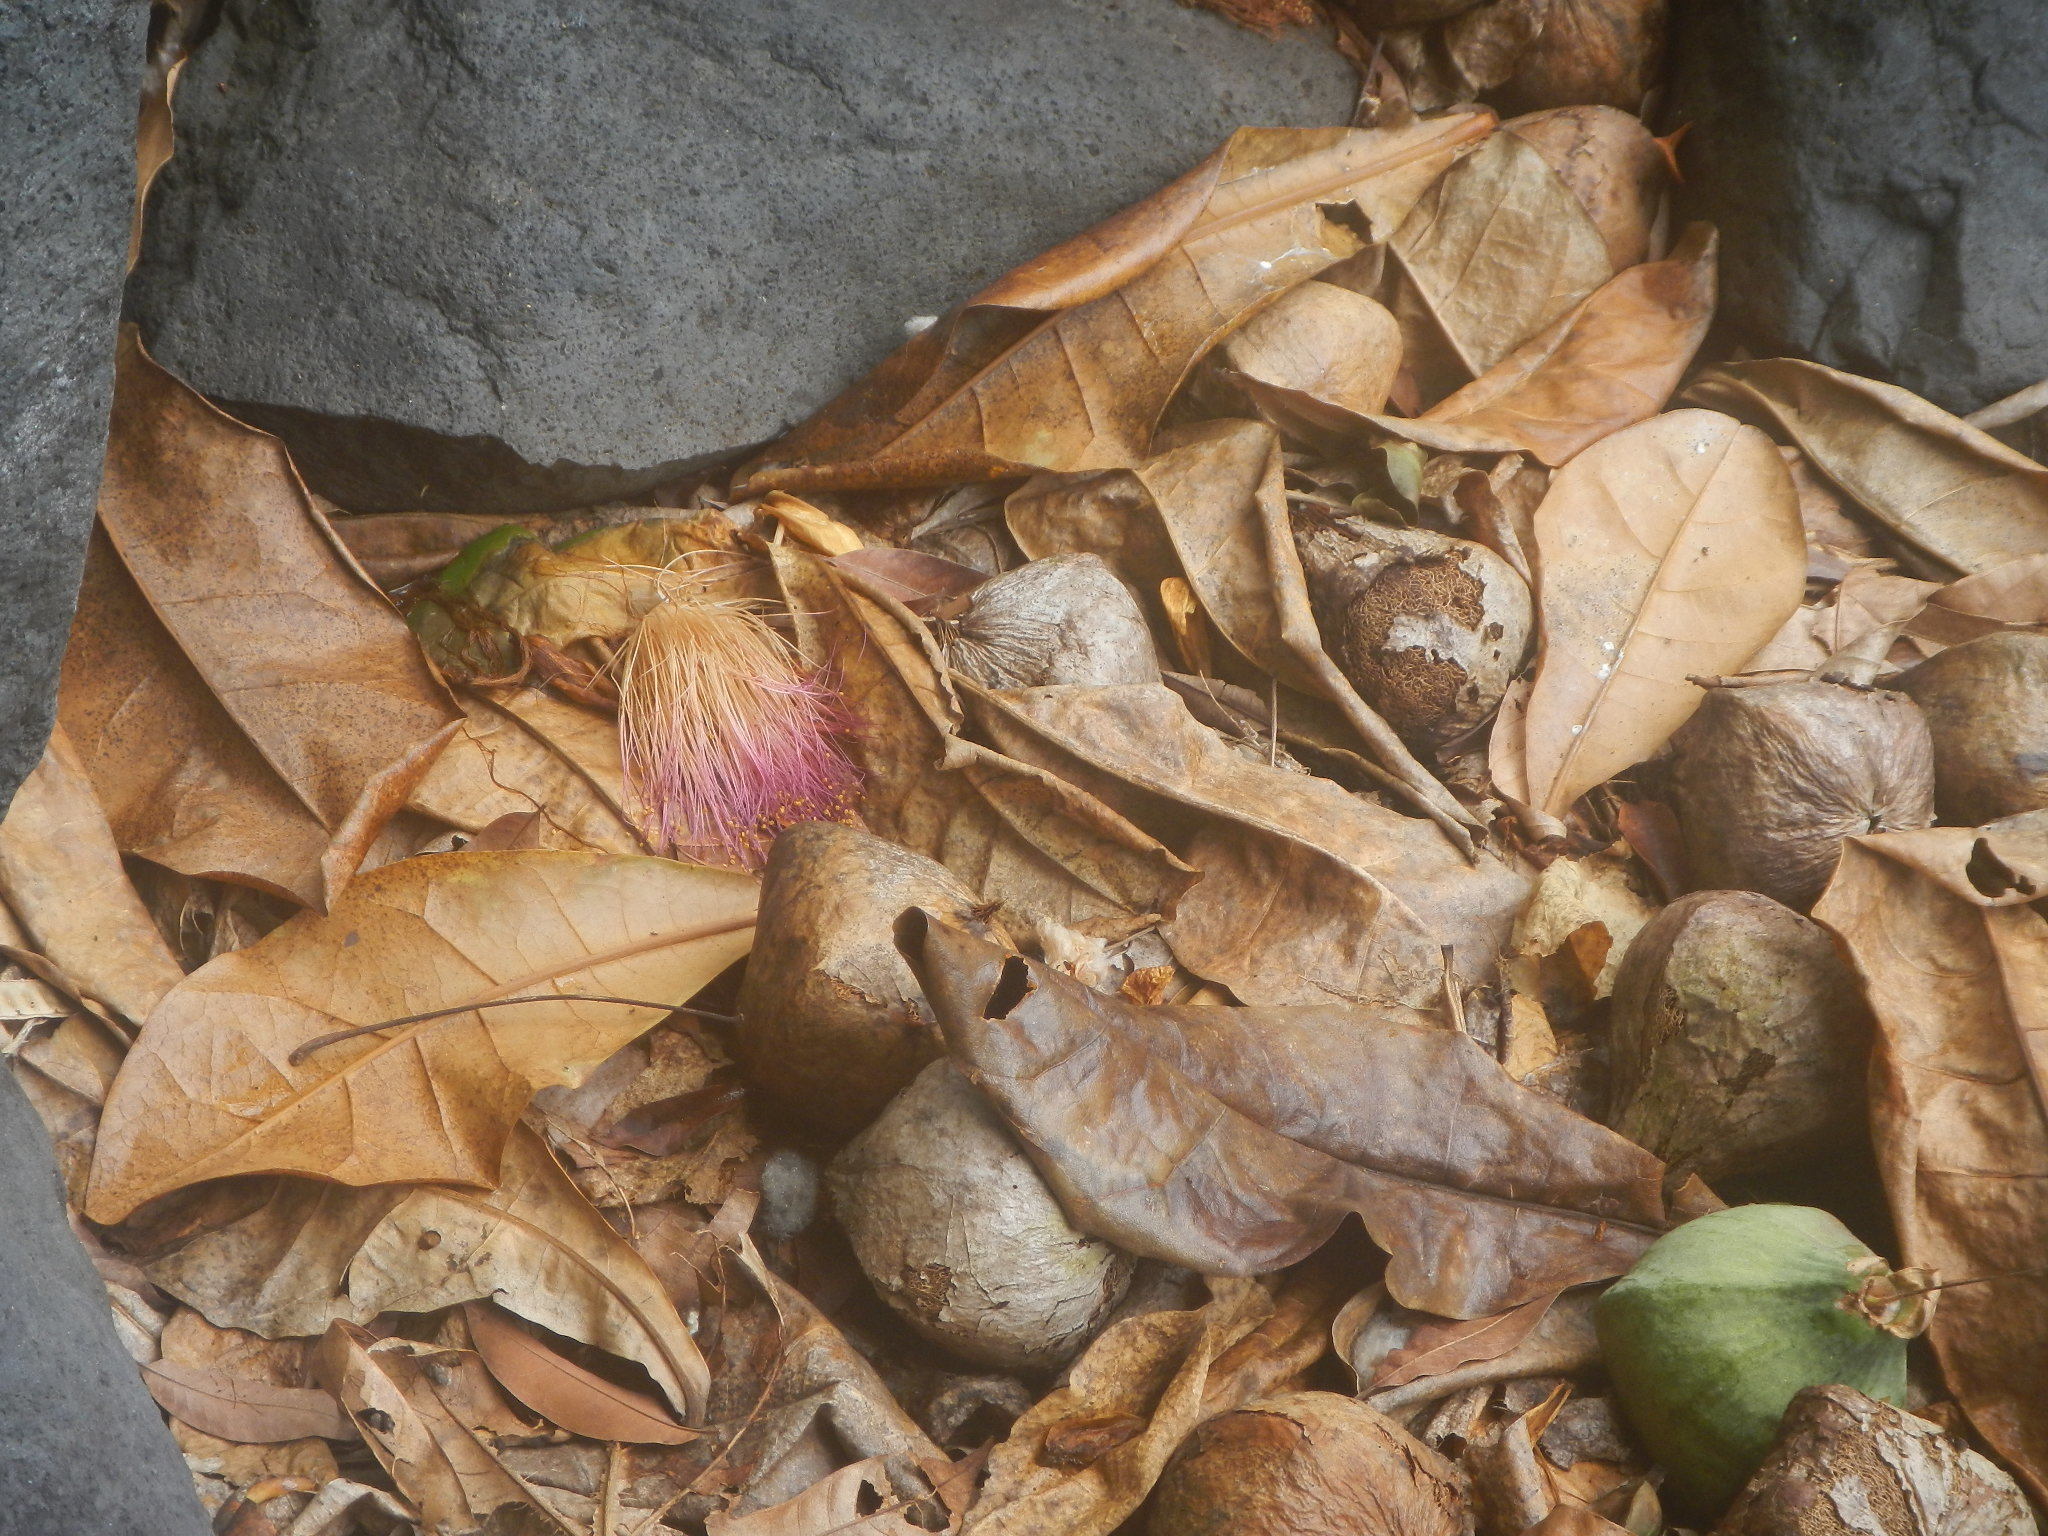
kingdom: Plantae
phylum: Tracheophyta
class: Magnoliopsida
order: Ericales
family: Lecythidaceae
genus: Barringtonia
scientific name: Barringtonia asiatica
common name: Mango-pine
